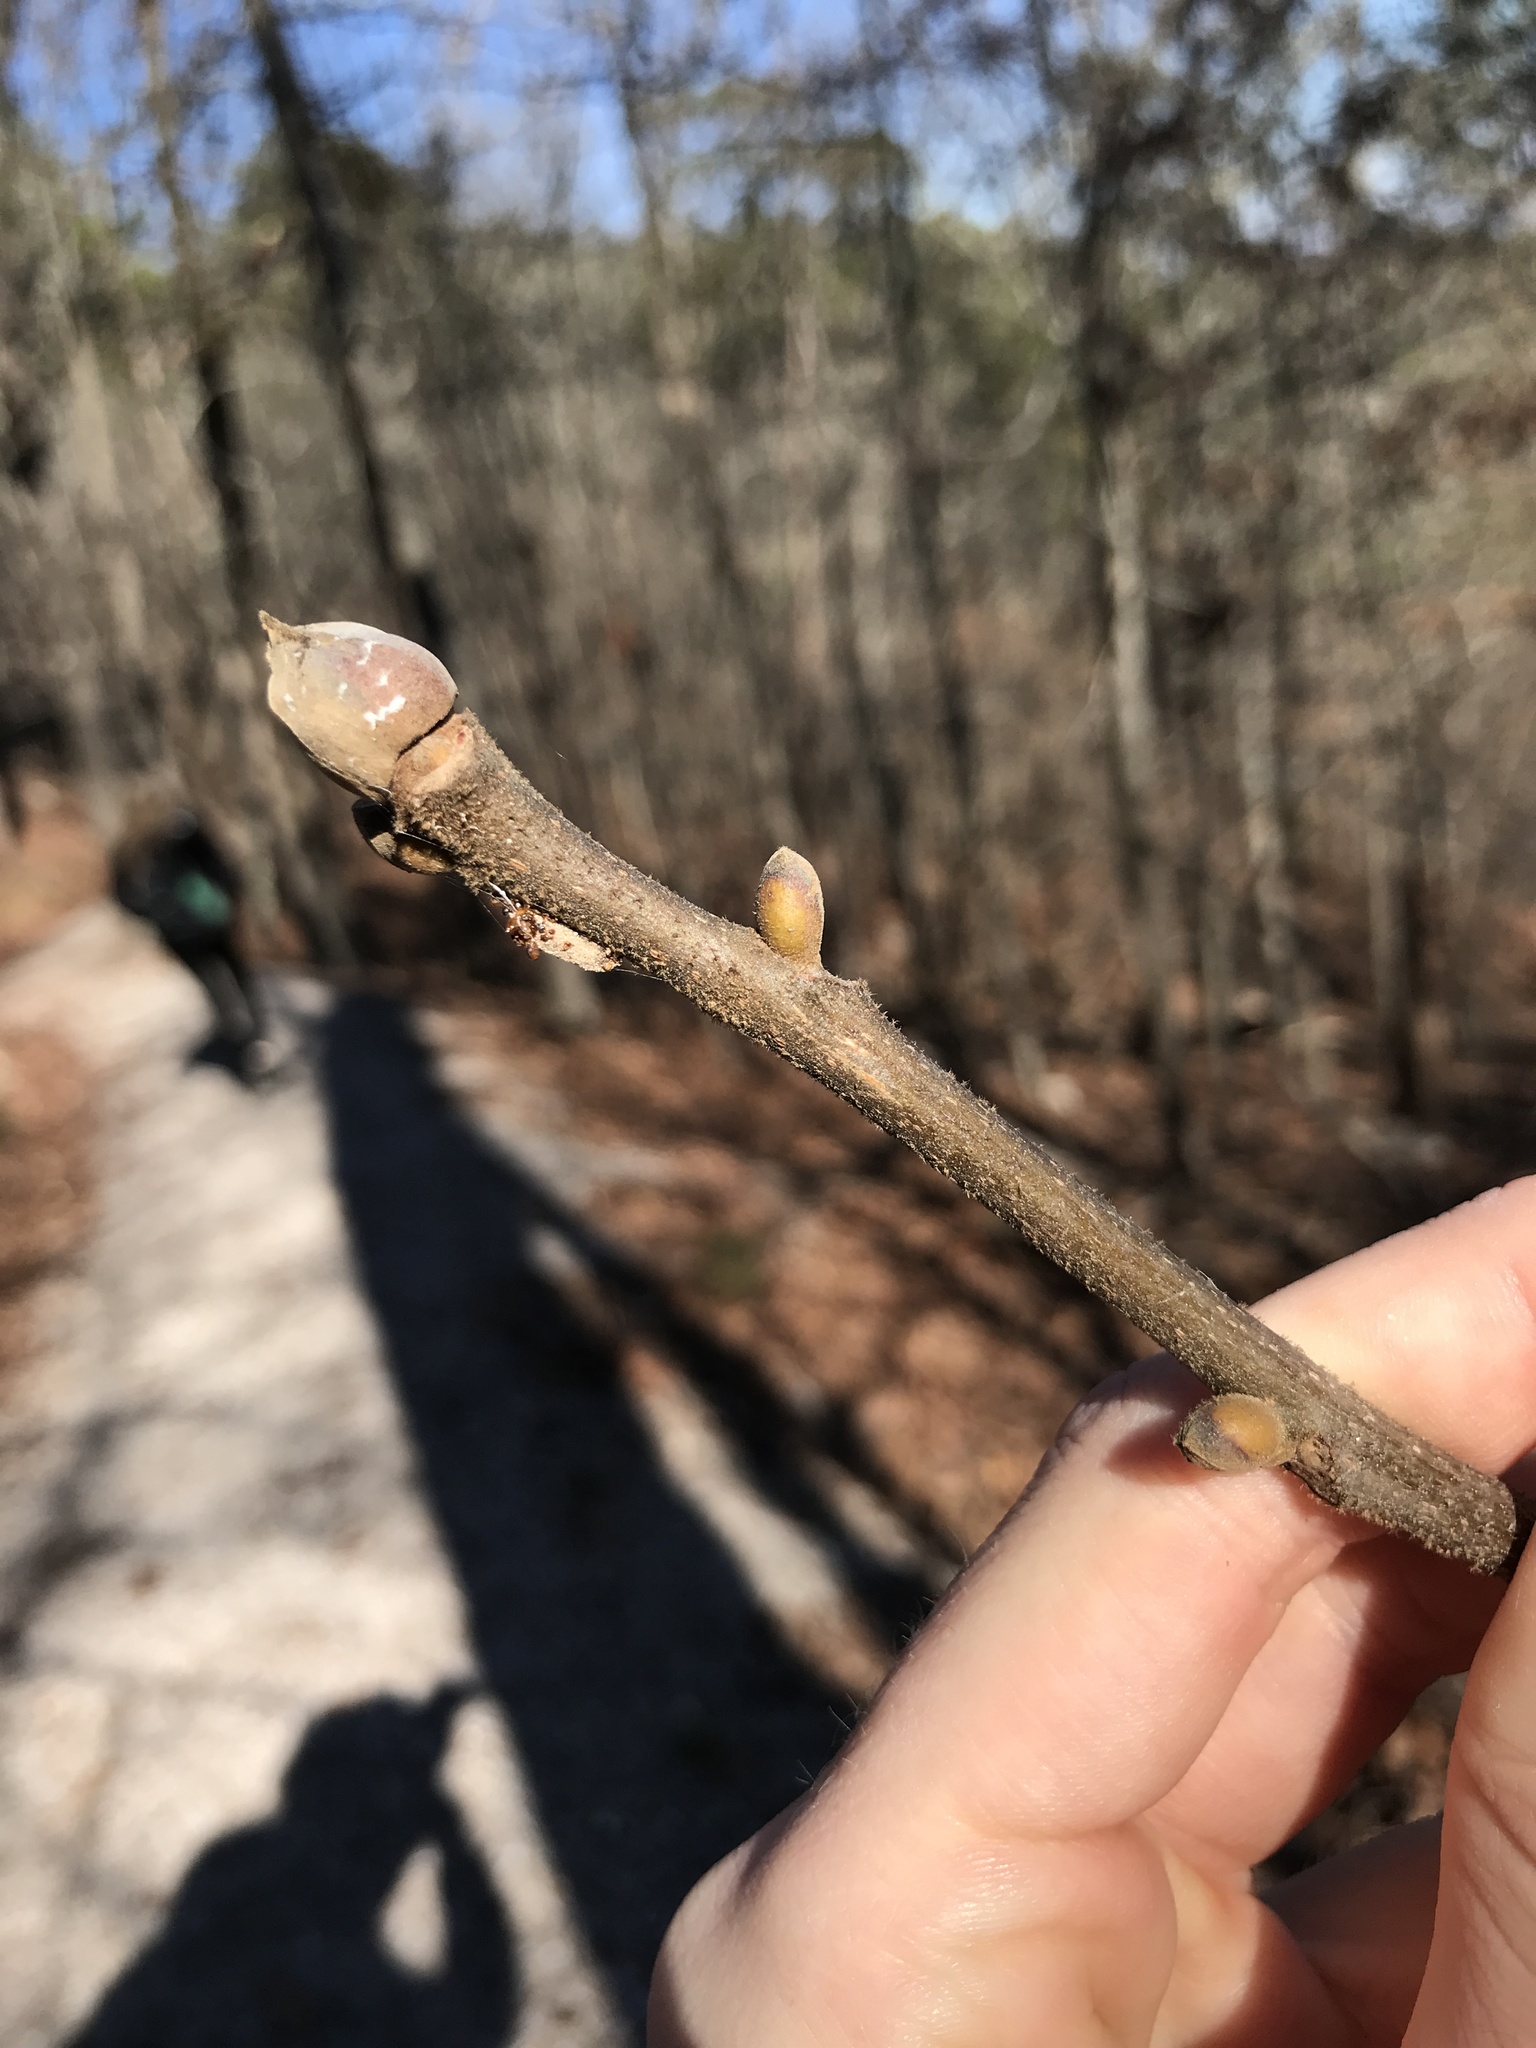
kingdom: Plantae
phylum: Tracheophyta
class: Magnoliopsida
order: Fagales
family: Juglandaceae
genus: Carya
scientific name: Carya alba
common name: Mockernut hickory
